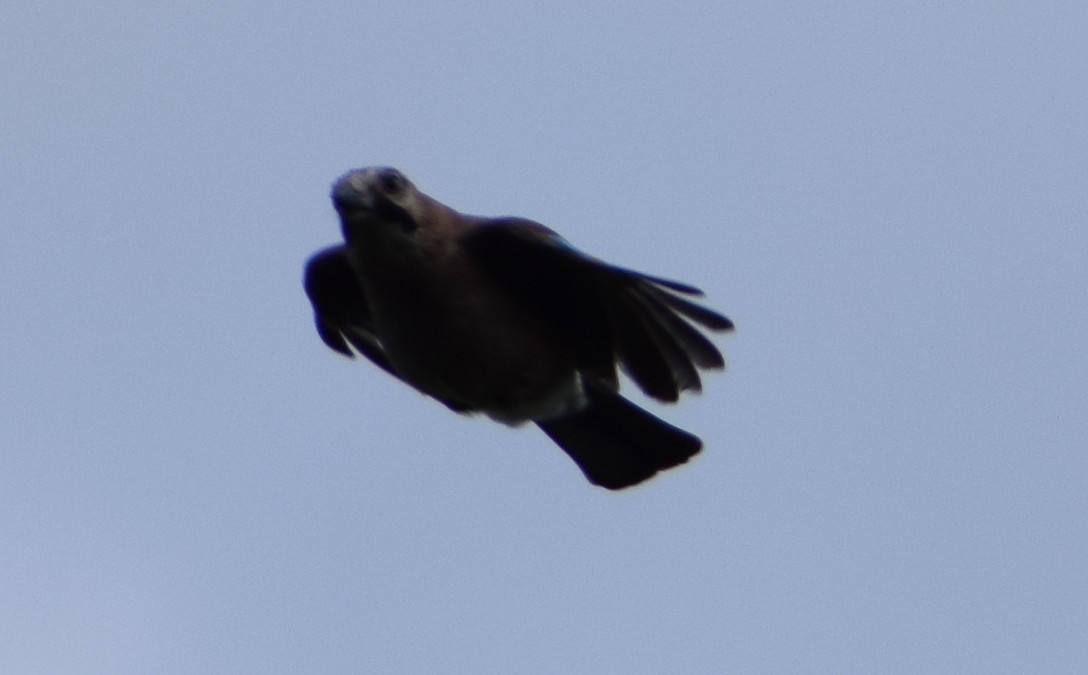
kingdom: Animalia
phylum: Chordata
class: Aves
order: Passeriformes
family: Corvidae
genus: Garrulus
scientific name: Garrulus glandarius
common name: Eurasian jay
